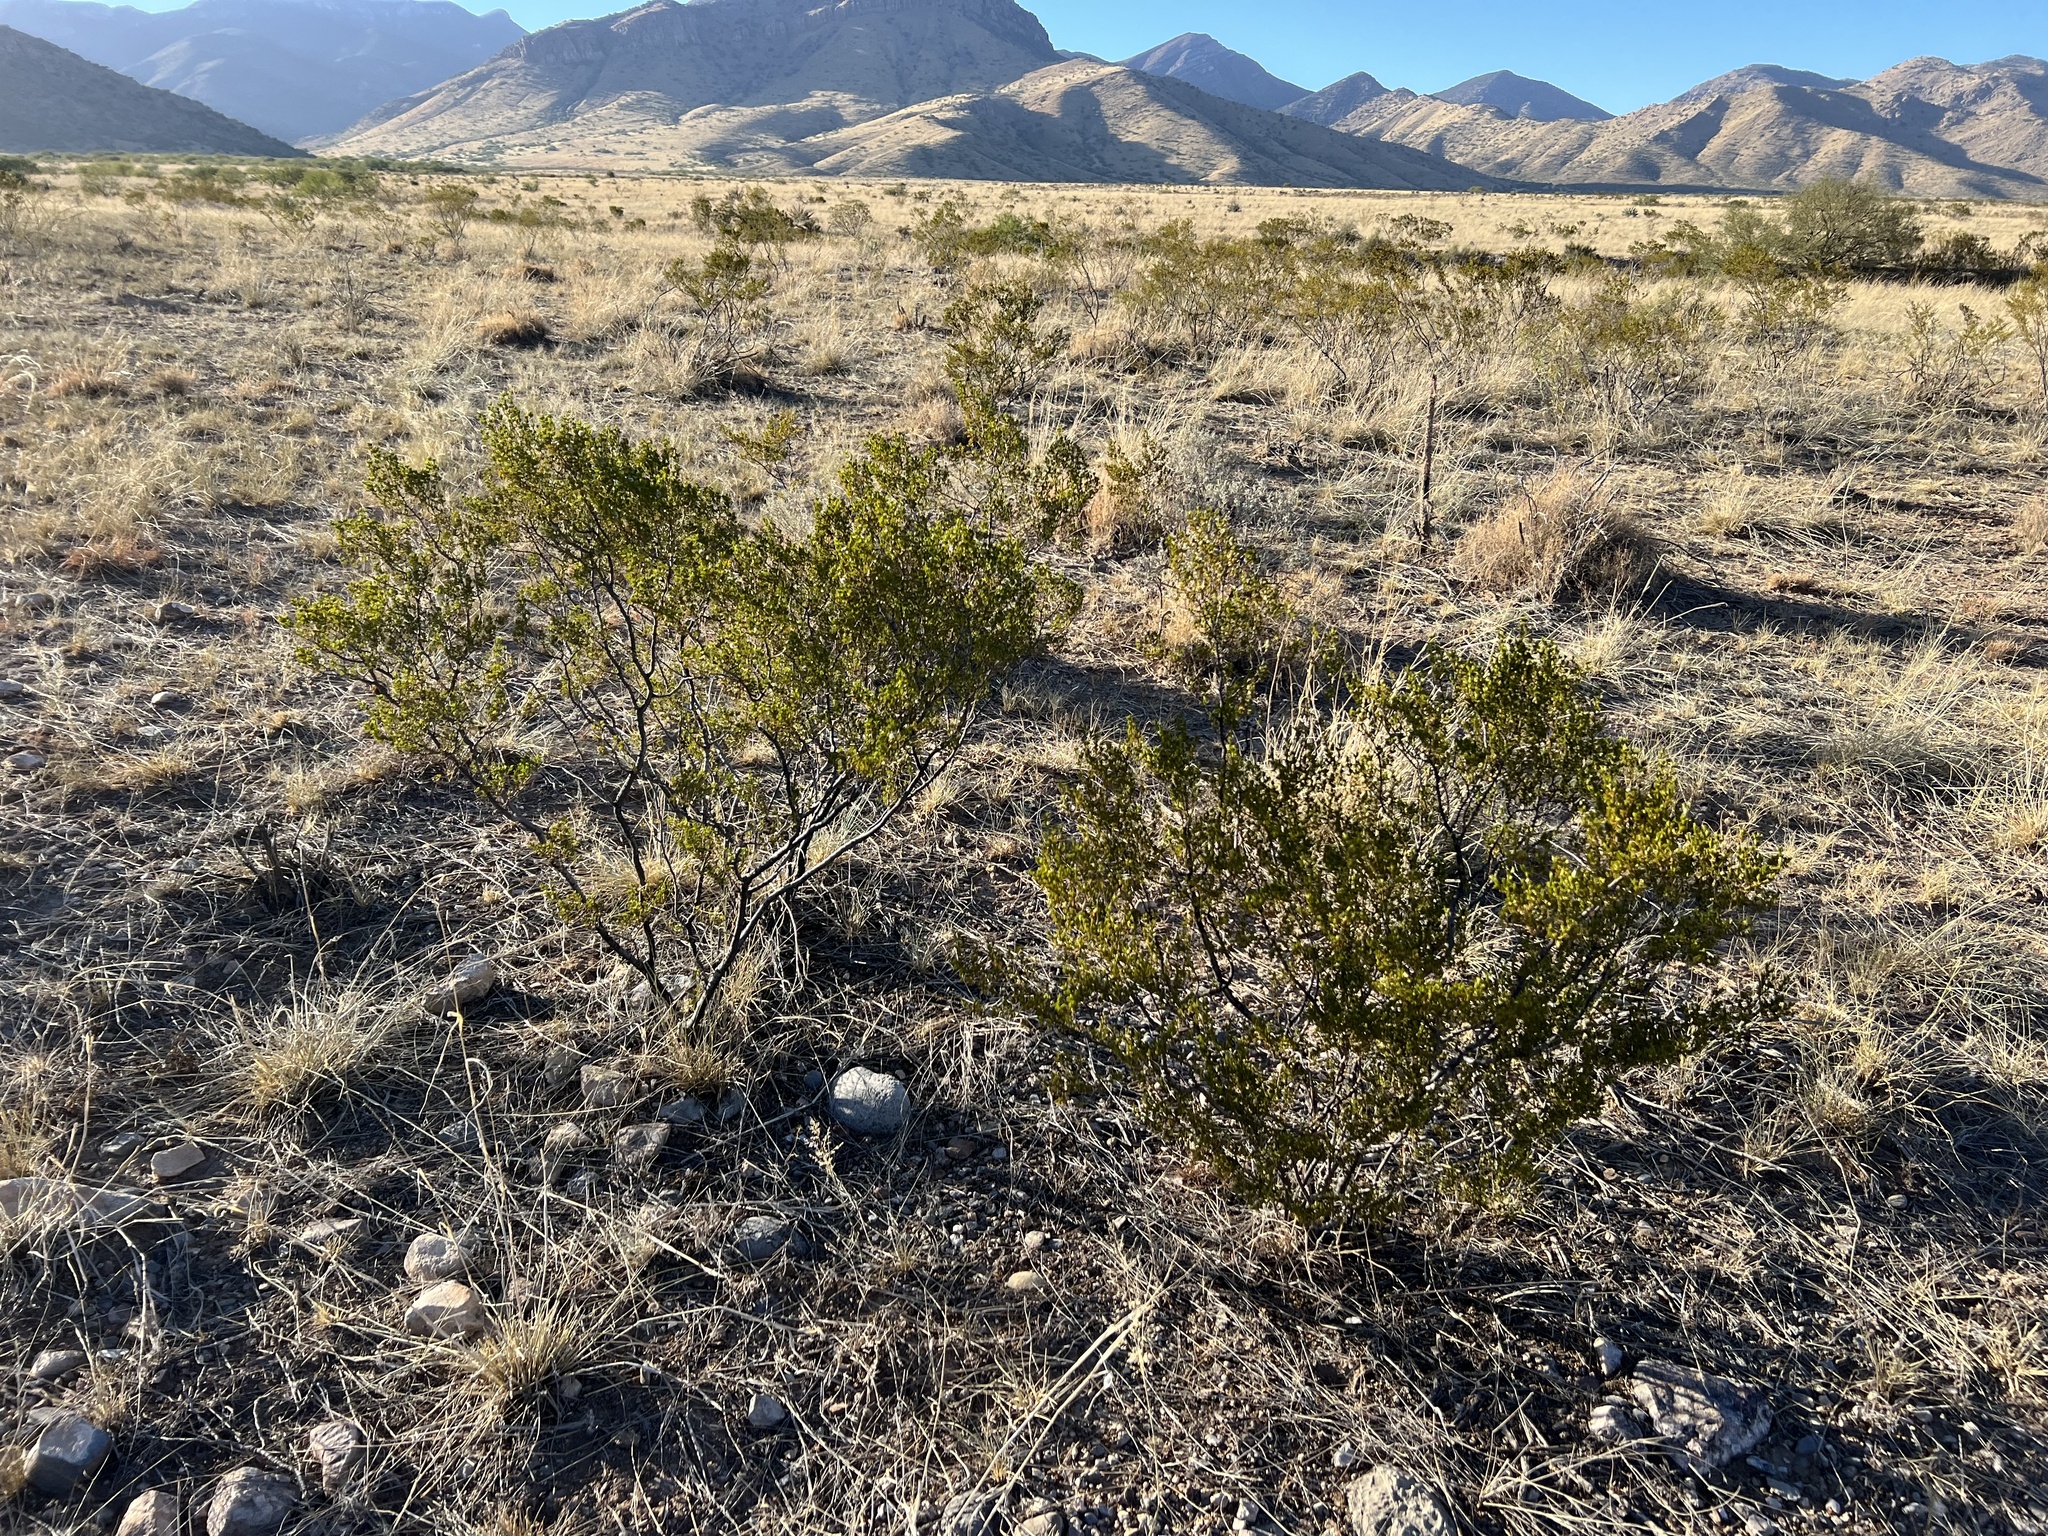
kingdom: Plantae
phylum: Tracheophyta
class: Magnoliopsida
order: Zygophyllales
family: Zygophyllaceae
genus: Larrea
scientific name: Larrea tridentata
